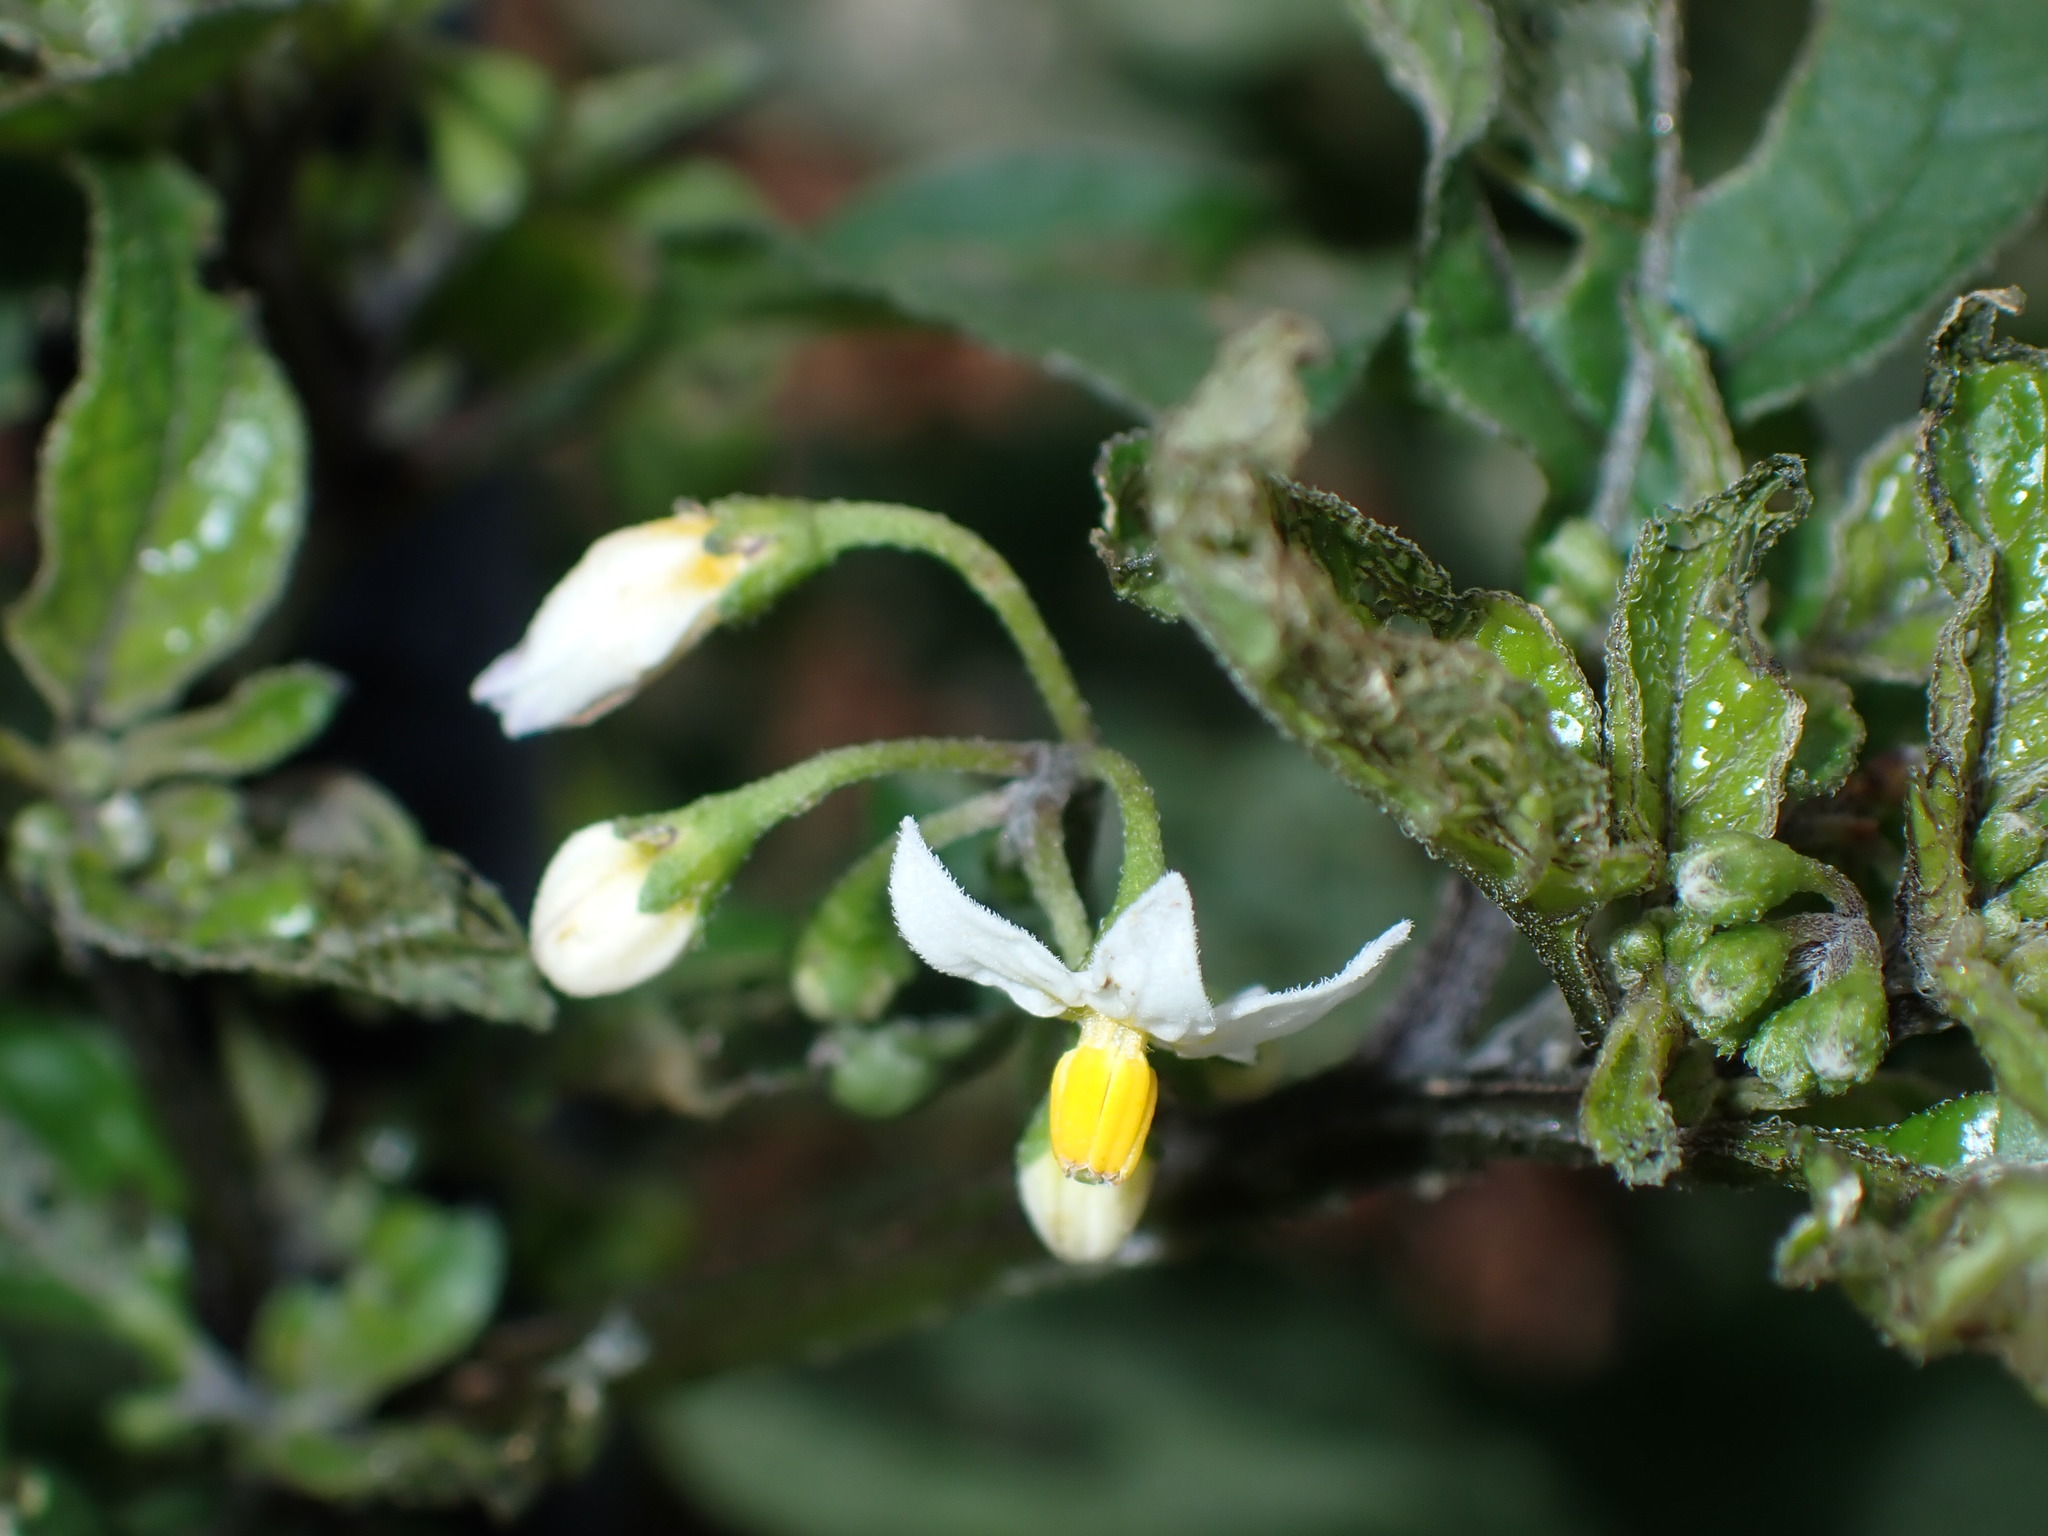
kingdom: Plantae
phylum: Tracheophyta
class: Magnoliopsida
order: Solanales
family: Solanaceae
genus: Solanum
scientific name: Solanum nigrum
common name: Black nightshade
